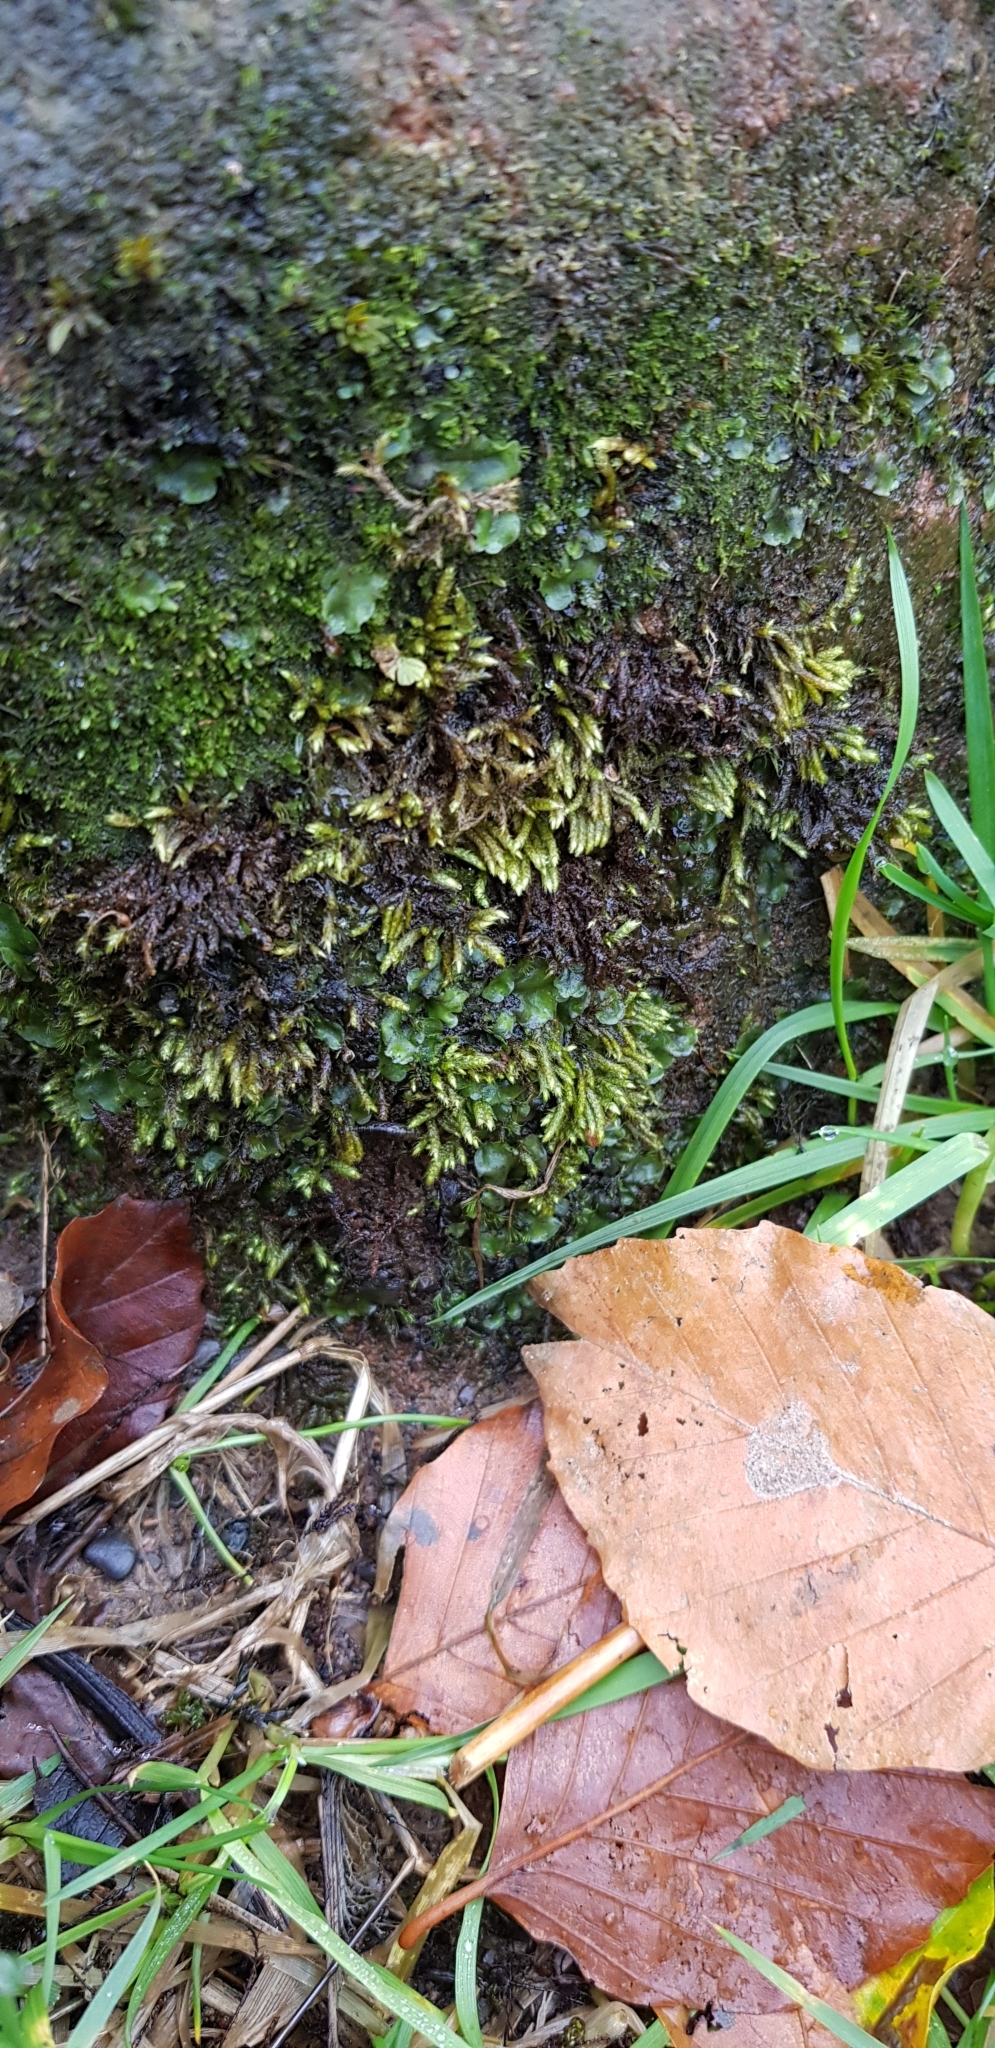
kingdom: Plantae
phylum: Bryophyta
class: Bryopsida
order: Hypnales
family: Myuriaceae
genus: Hyocomium
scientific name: Hyocomium armoricum
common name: Flagellate feather-moss
